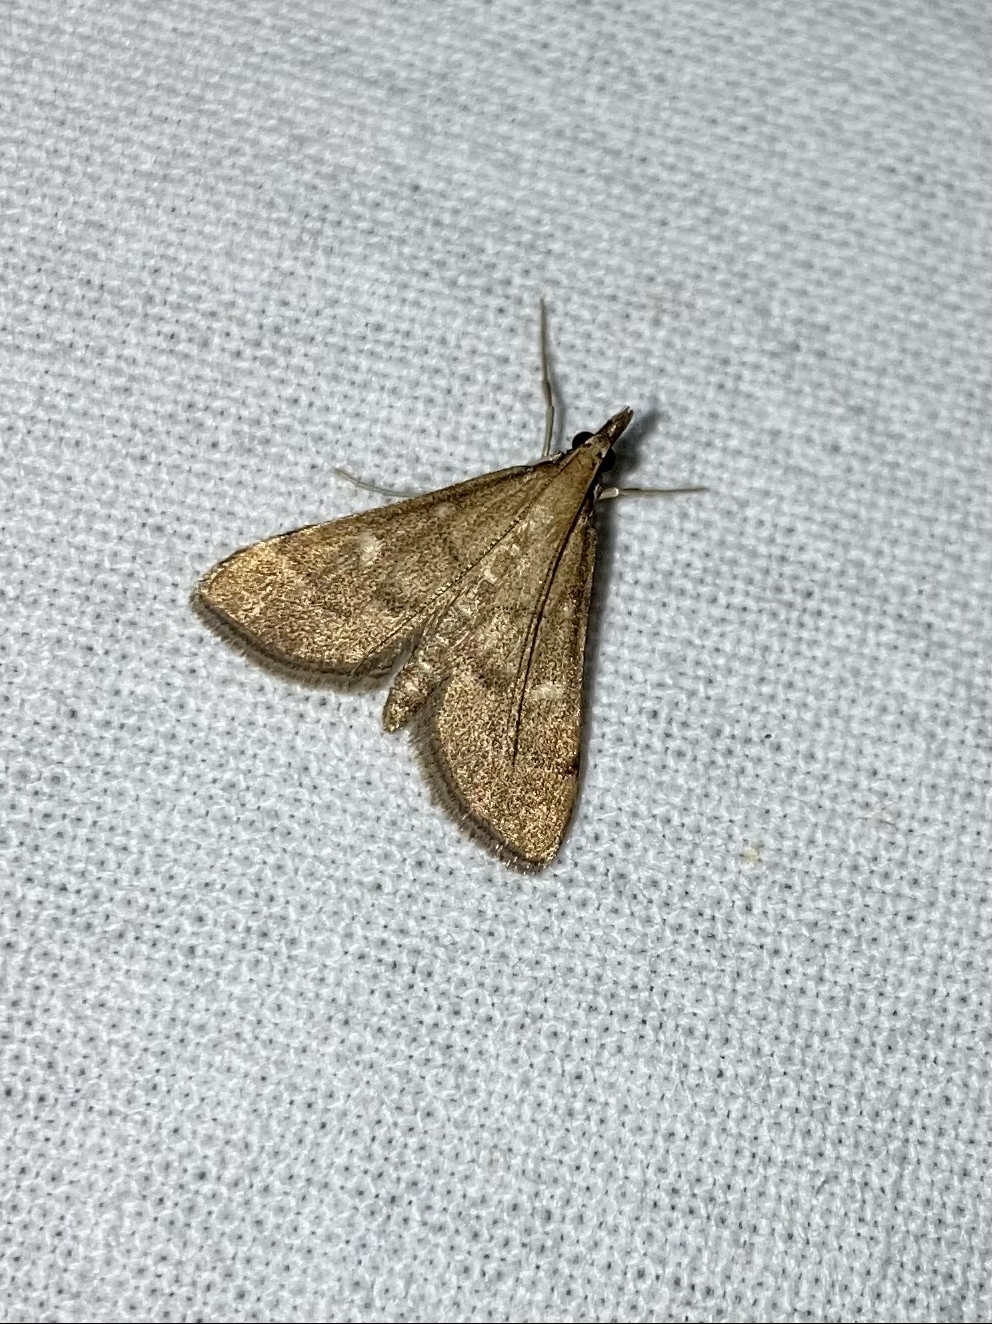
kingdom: Animalia
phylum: Arthropoda
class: Insecta
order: Lepidoptera
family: Crambidae
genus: Stenia
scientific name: Stenia Dolicharthria punctalis
